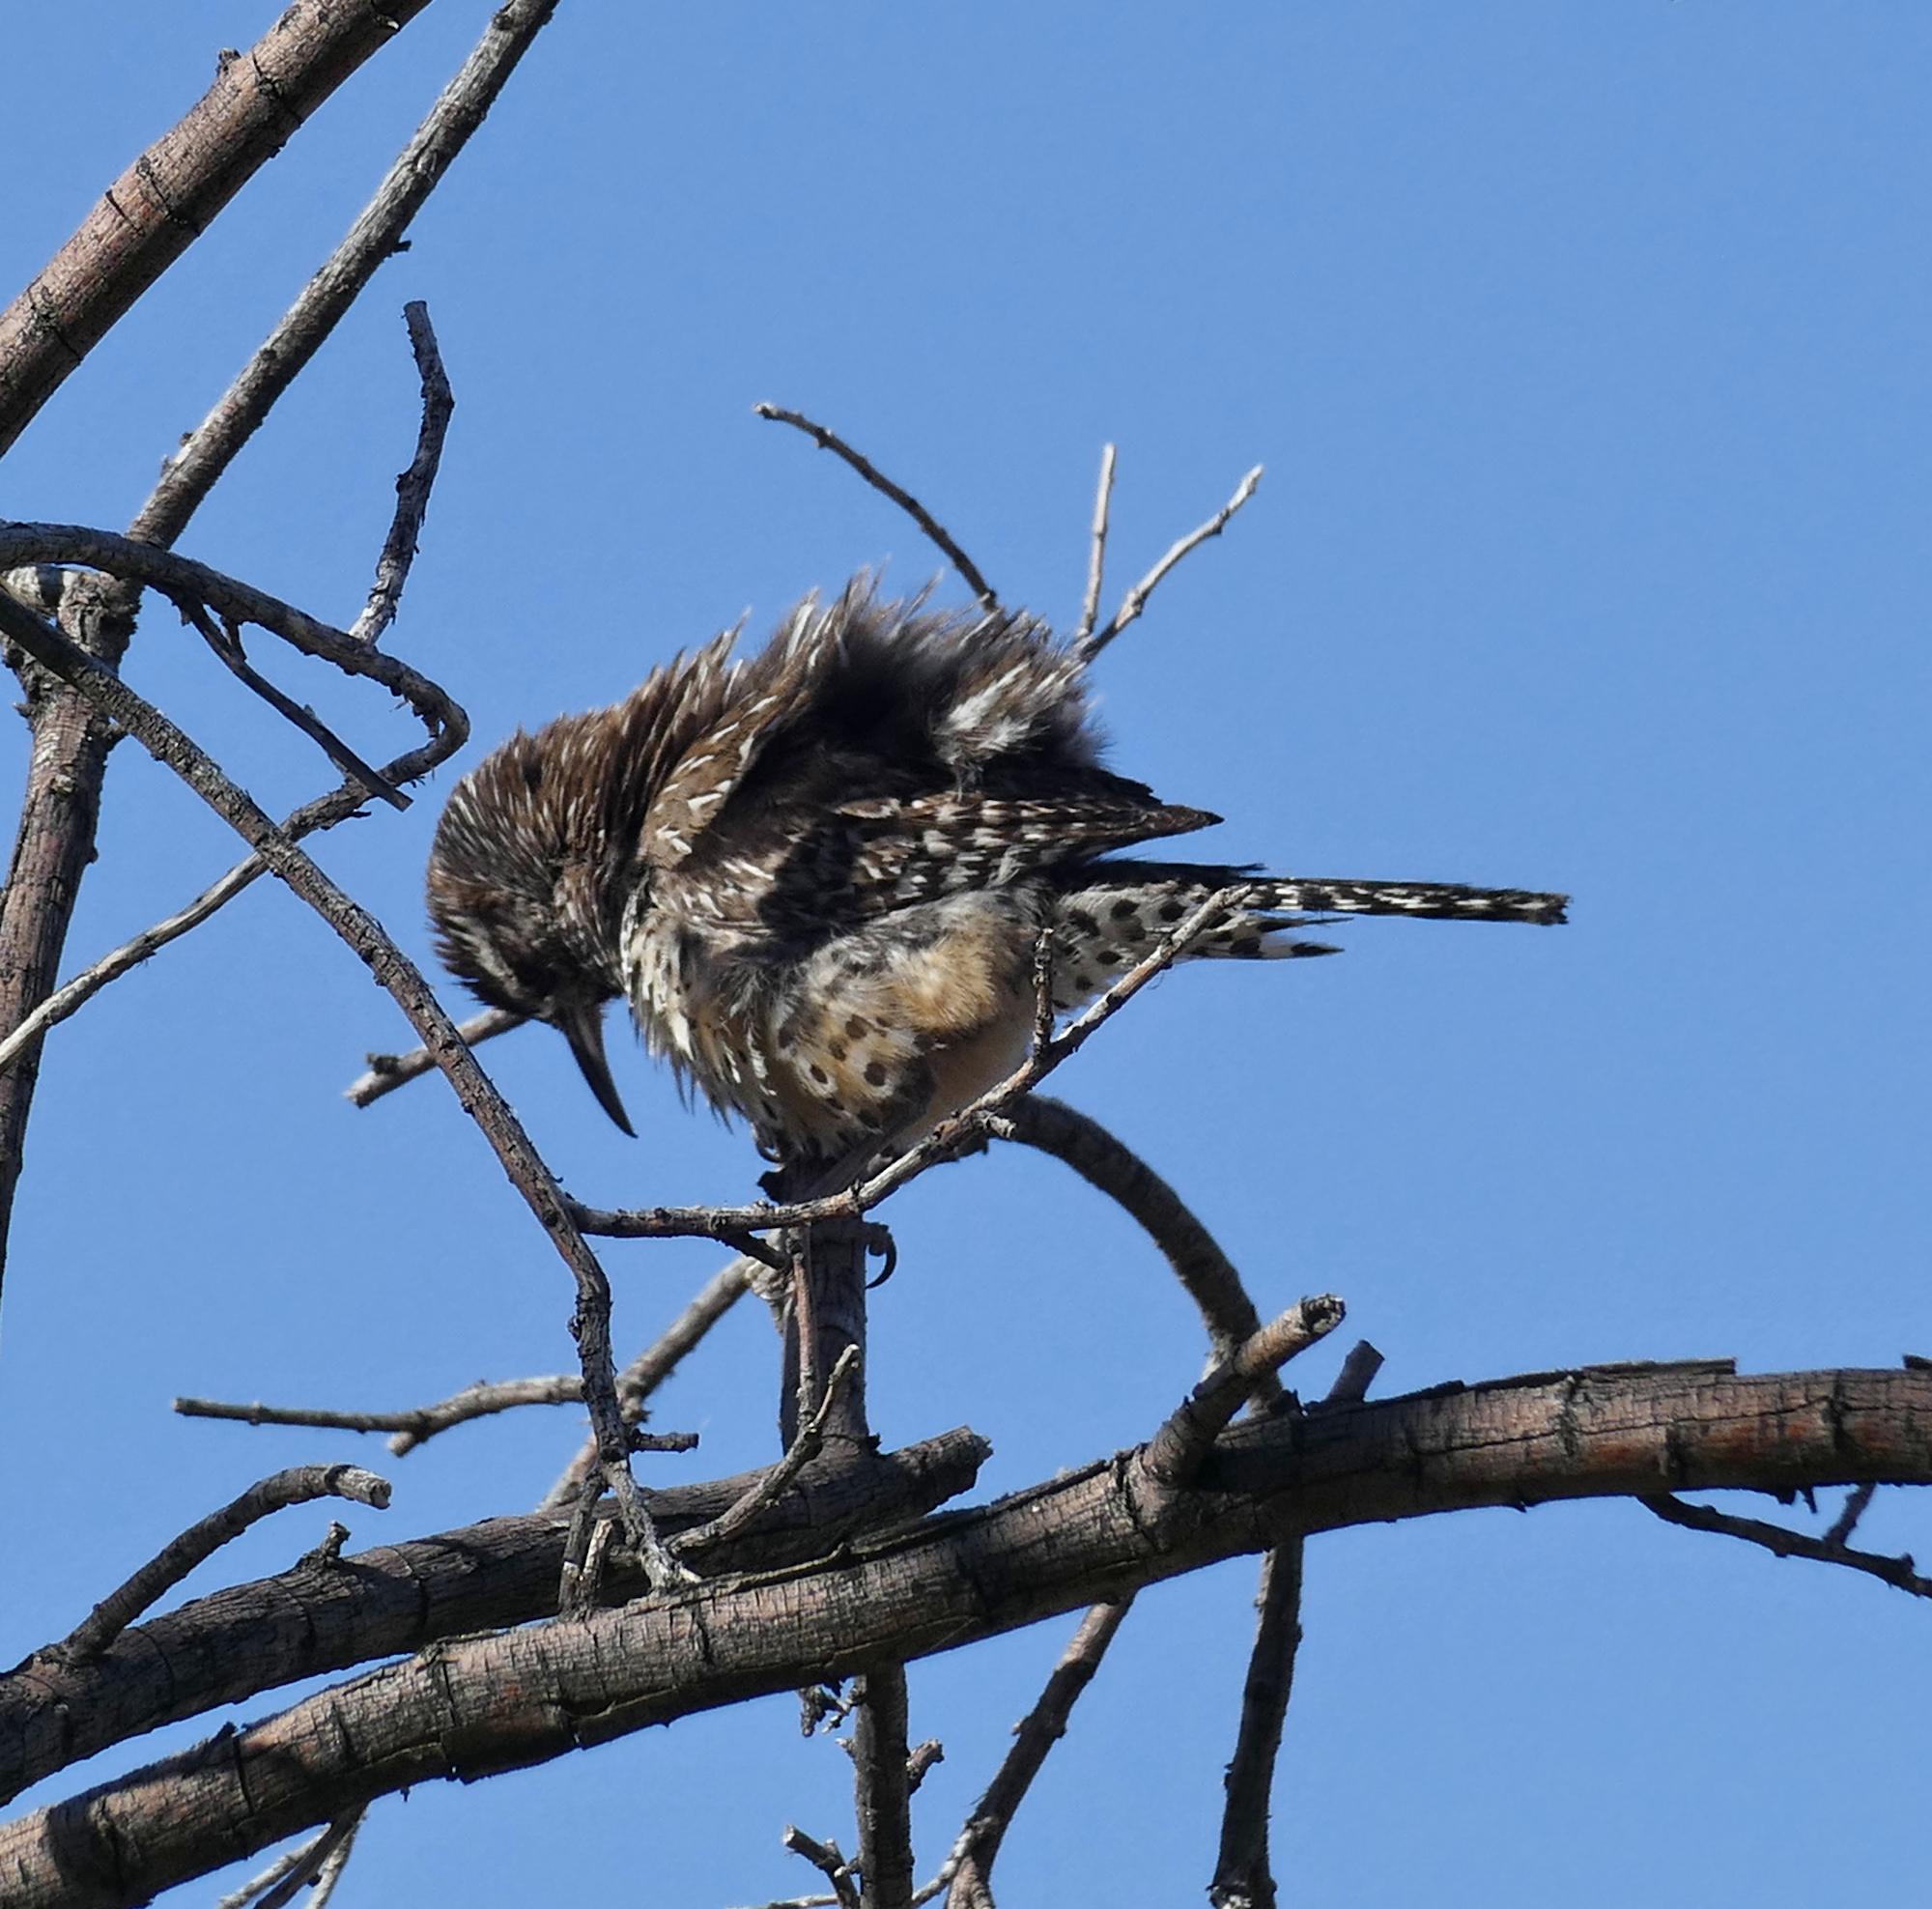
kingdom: Animalia
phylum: Chordata
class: Aves
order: Passeriformes
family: Troglodytidae
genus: Campylorhynchus
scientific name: Campylorhynchus brunneicapillus
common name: Cactus wren
